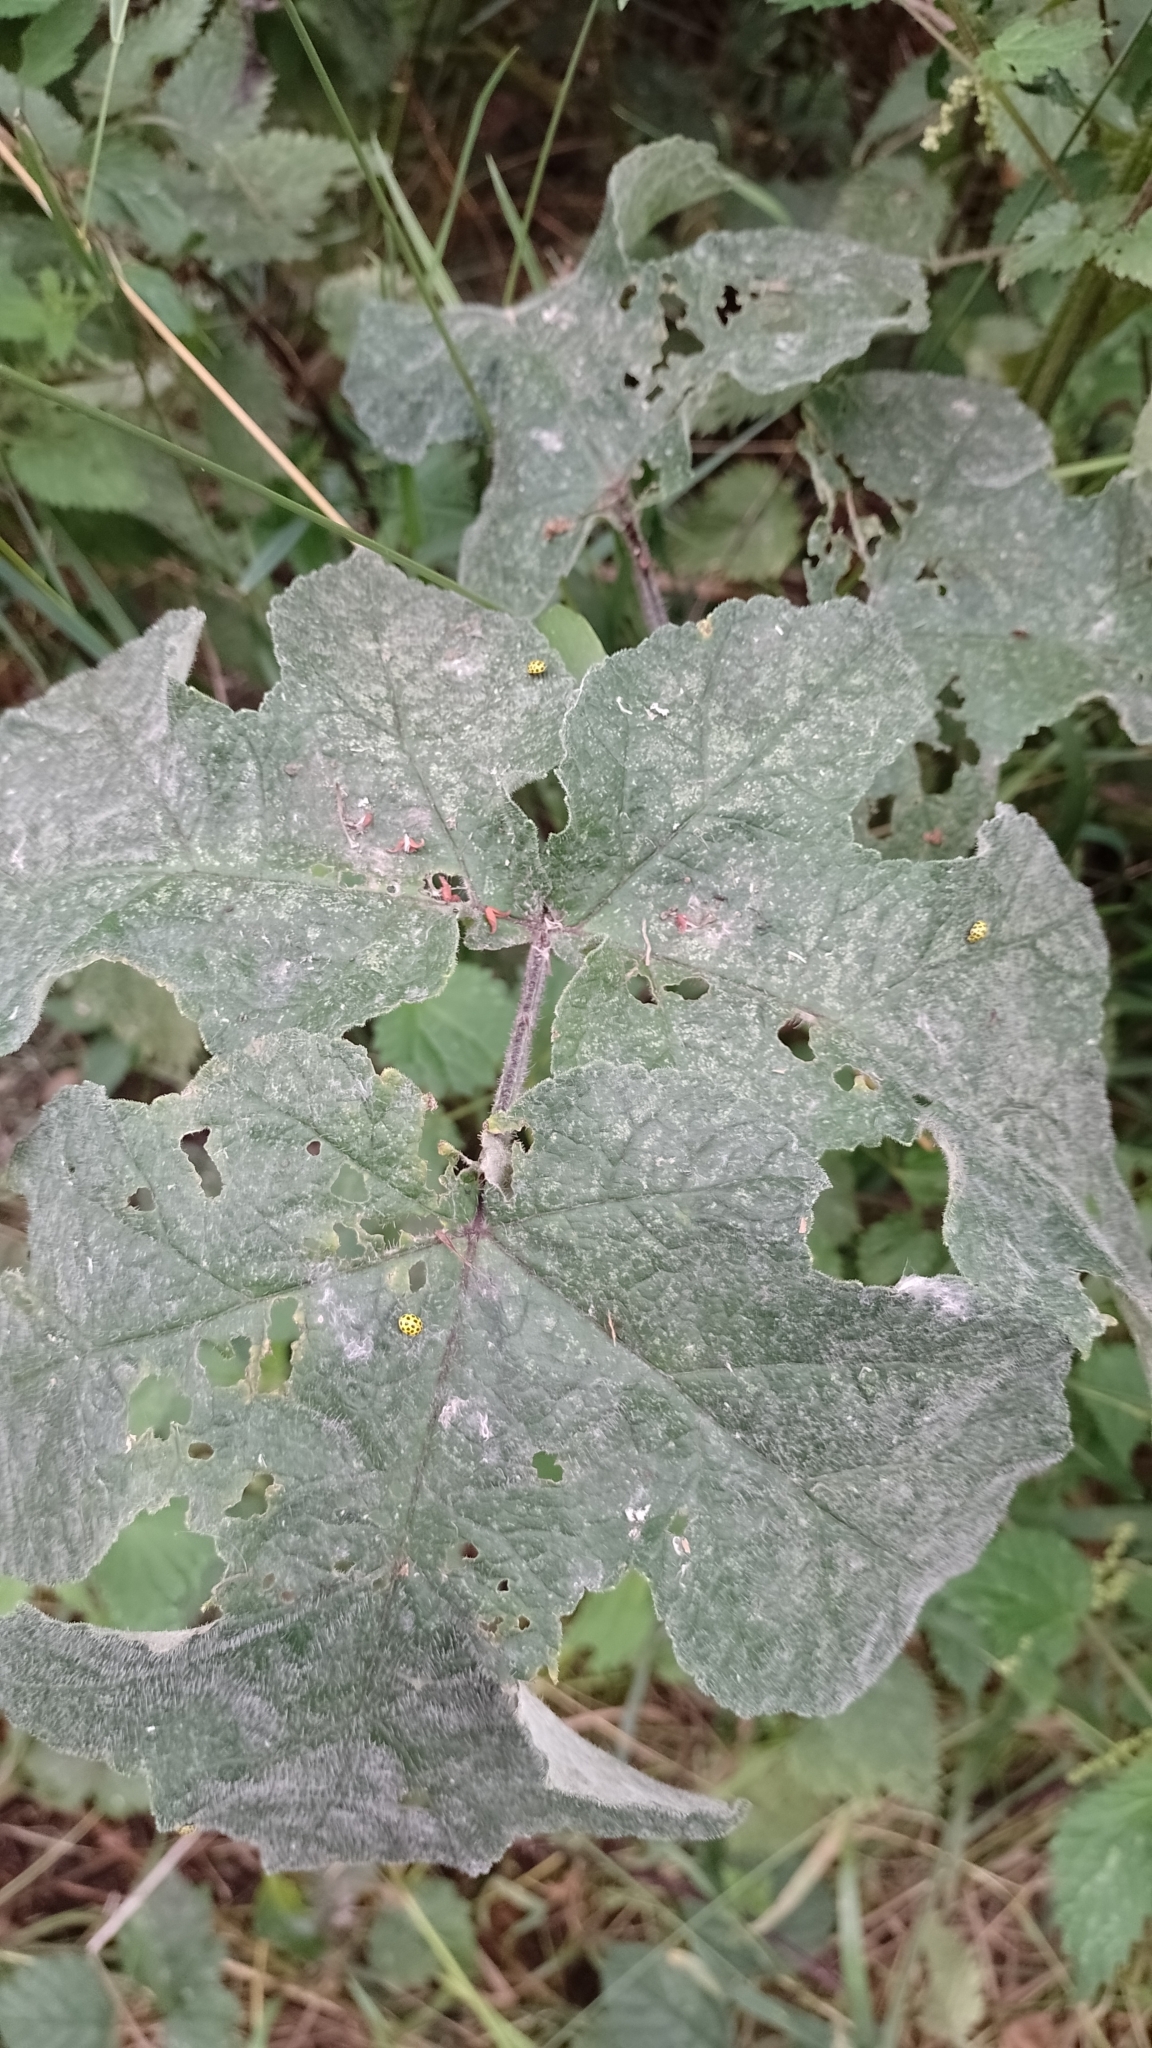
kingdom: Fungi
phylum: Ascomycota
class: Leotiomycetes
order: Helotiales
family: Erysiphaceae
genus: Erysiphe
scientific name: Erysiphe heraclei
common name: Umbellifer mildew
